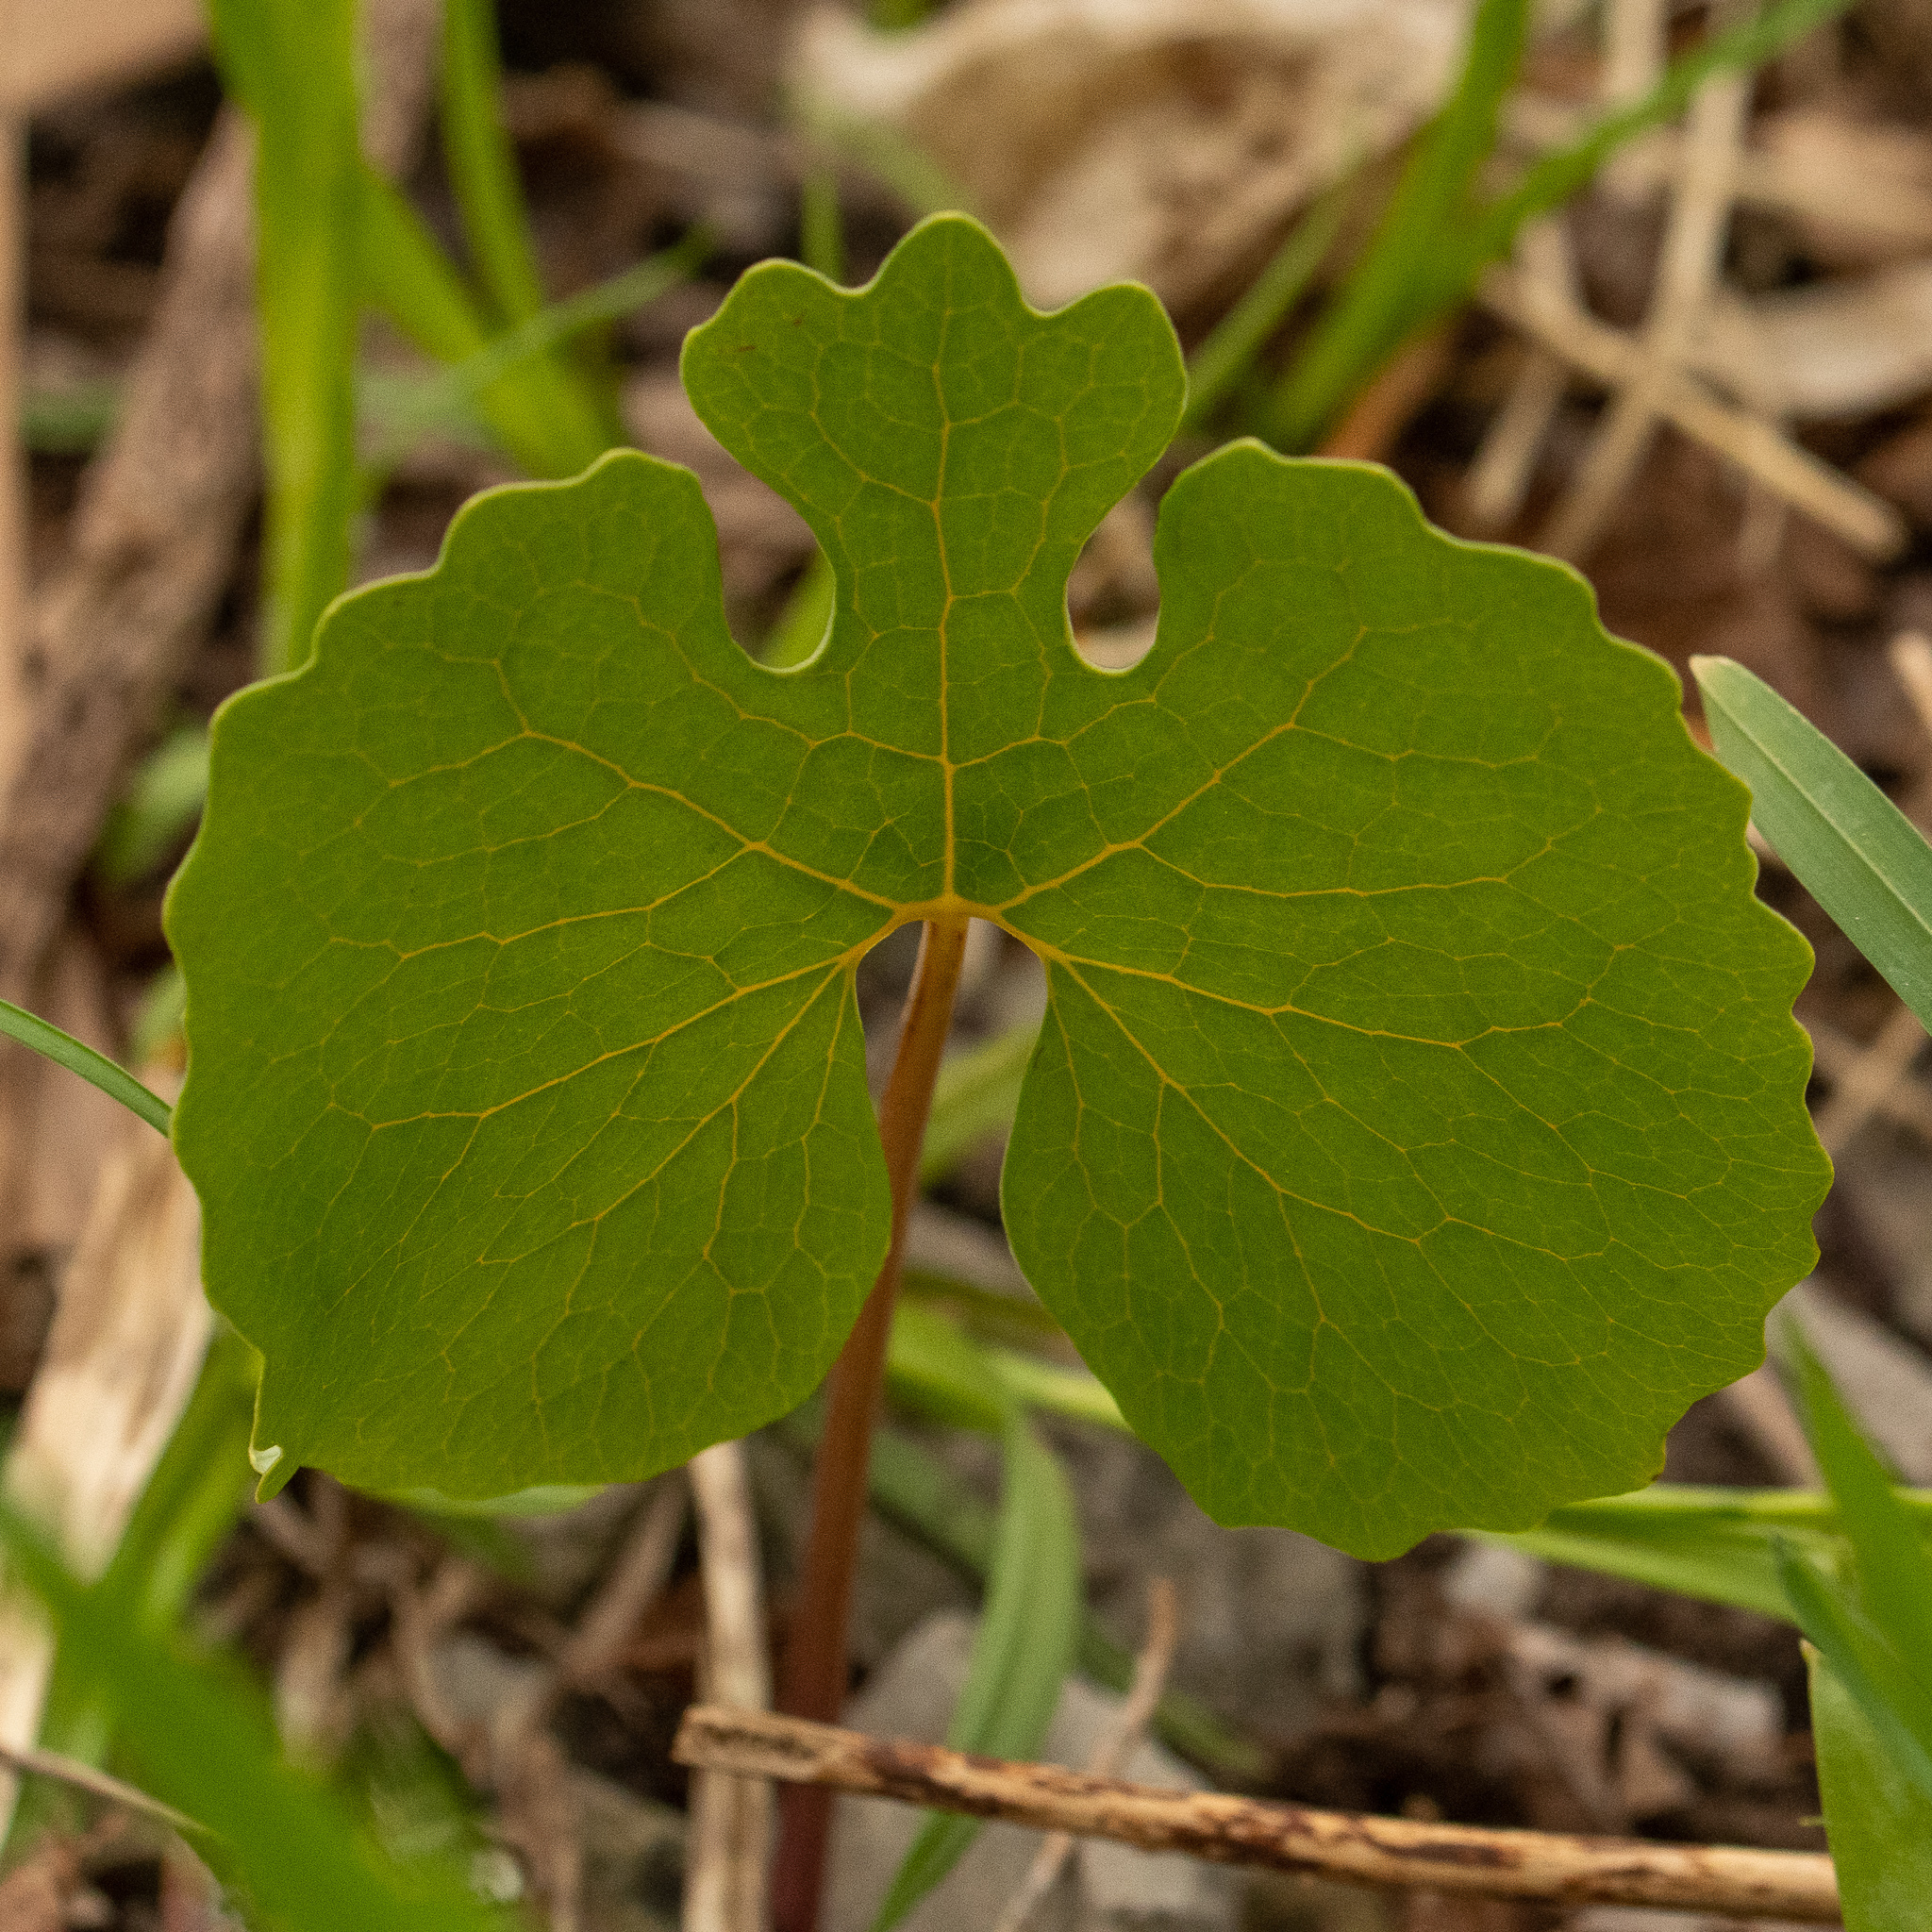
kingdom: Plantae
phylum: Tracheophyta
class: Magnoliopsida
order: Ranunculales
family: Papaveraceae
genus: Sanguinaria
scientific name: Sanguinaria canadensis
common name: Bloodroot
